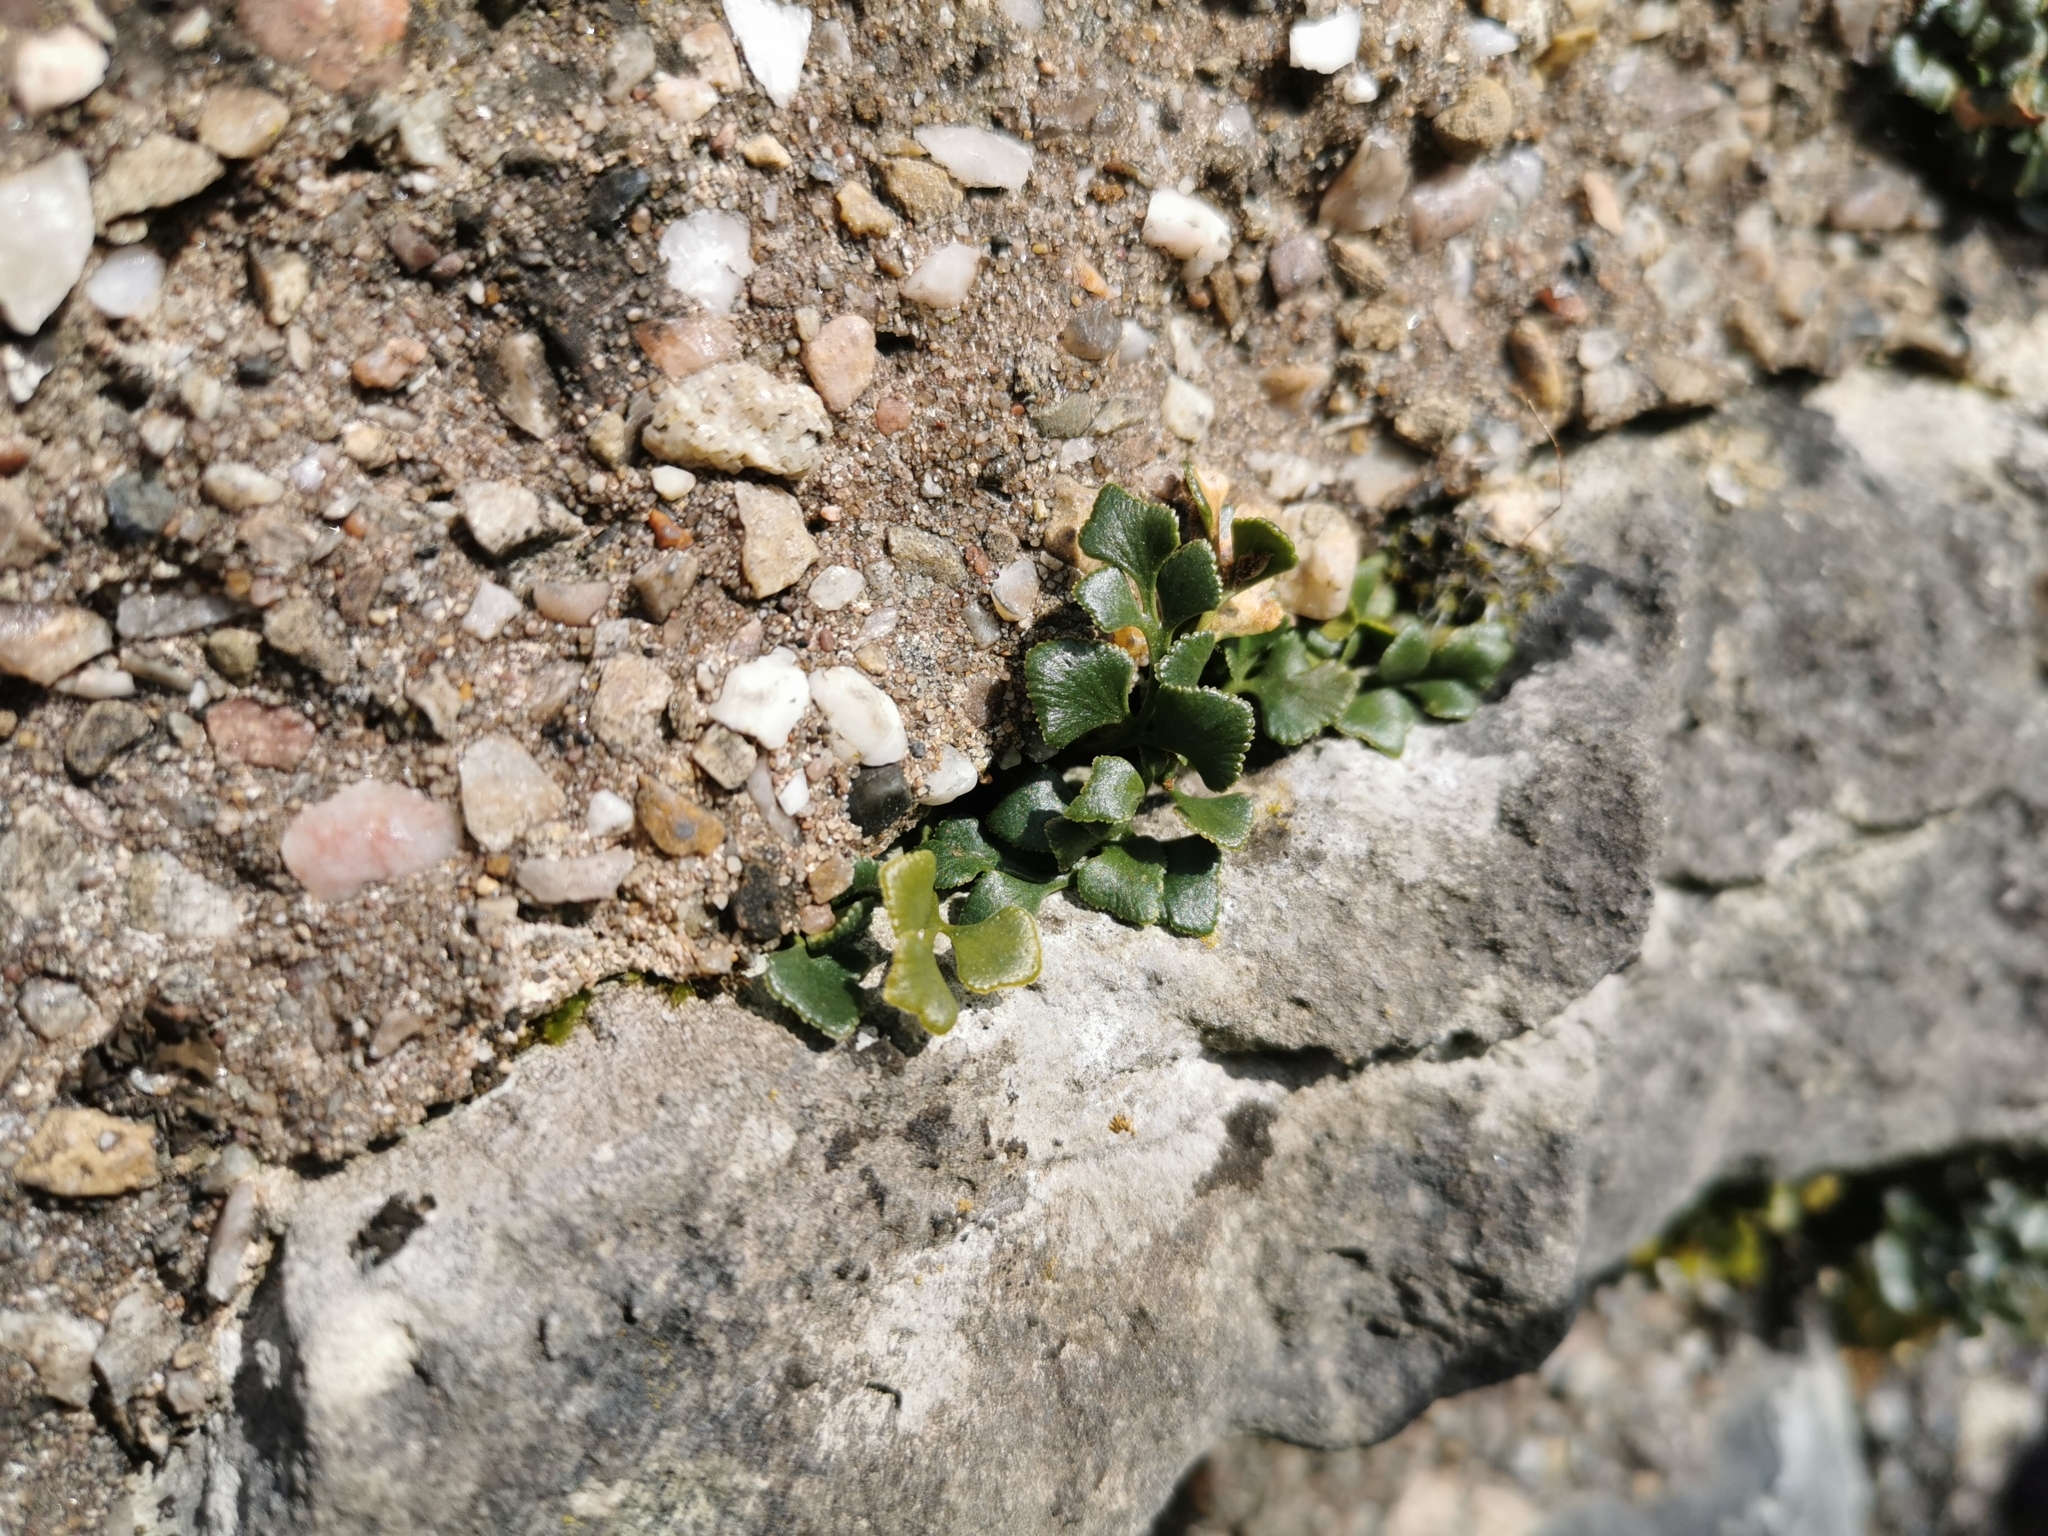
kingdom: Plantae
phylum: Tracheophyta
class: Polypodiopsida
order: Polypodiales
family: Aspleniaceae
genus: Asplenium
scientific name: Asplenium ruta-muraria
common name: Wall-rue
